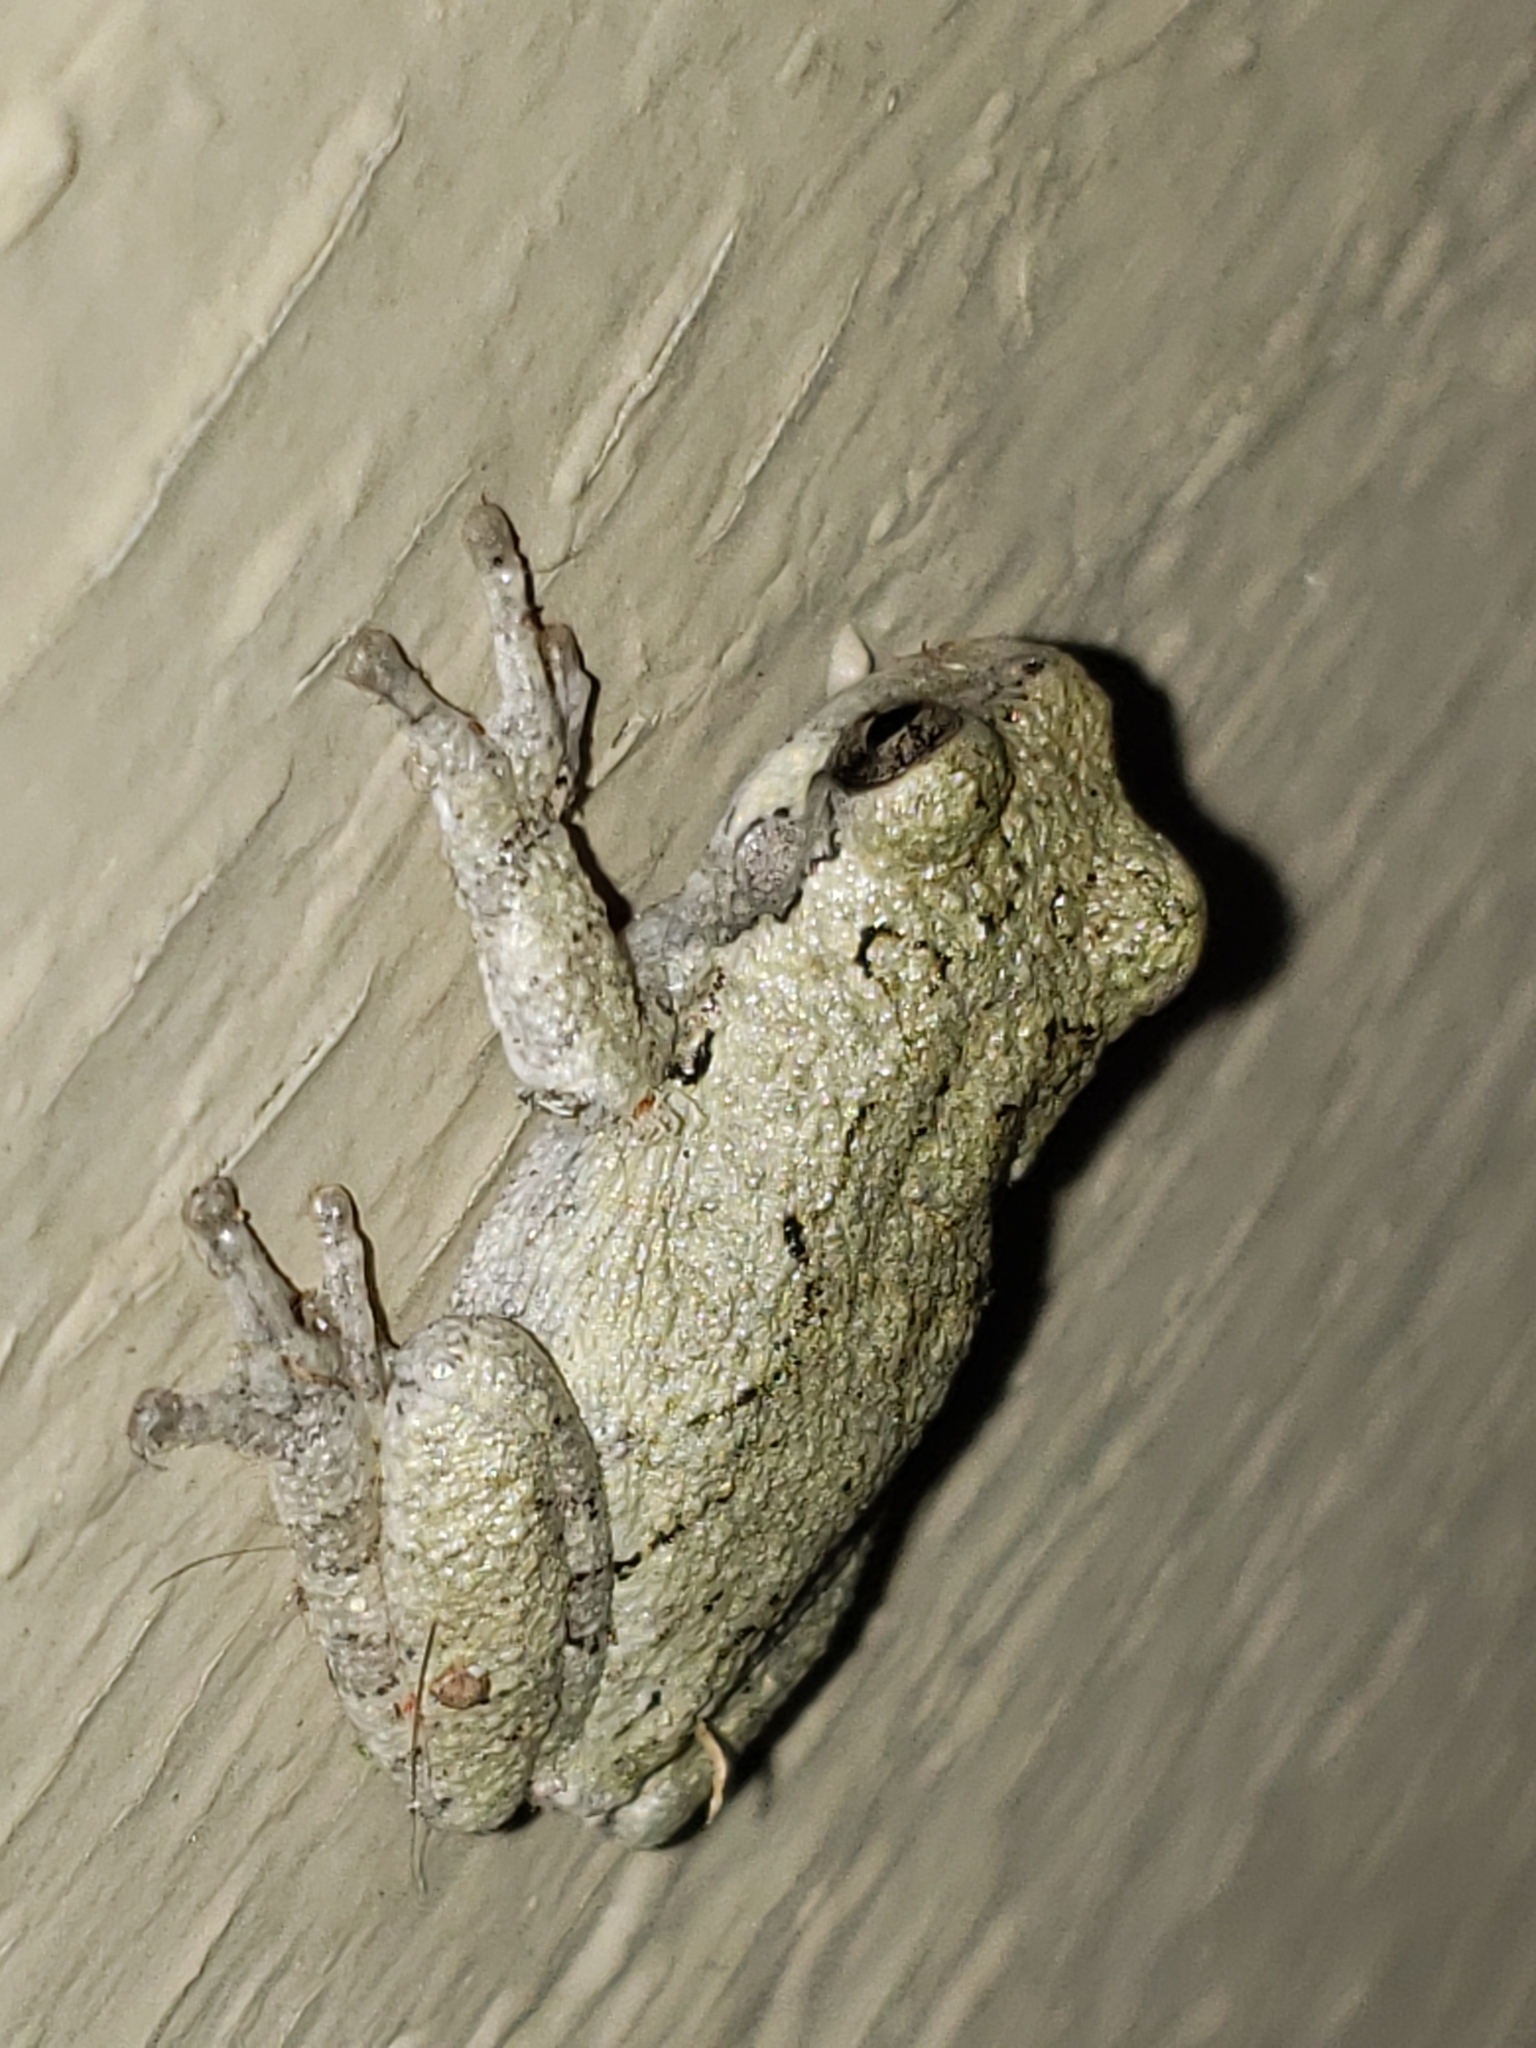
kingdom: Animalia
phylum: Chordata
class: Amphibia
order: Anura
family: Hylidae
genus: Hyla
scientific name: Hyla
